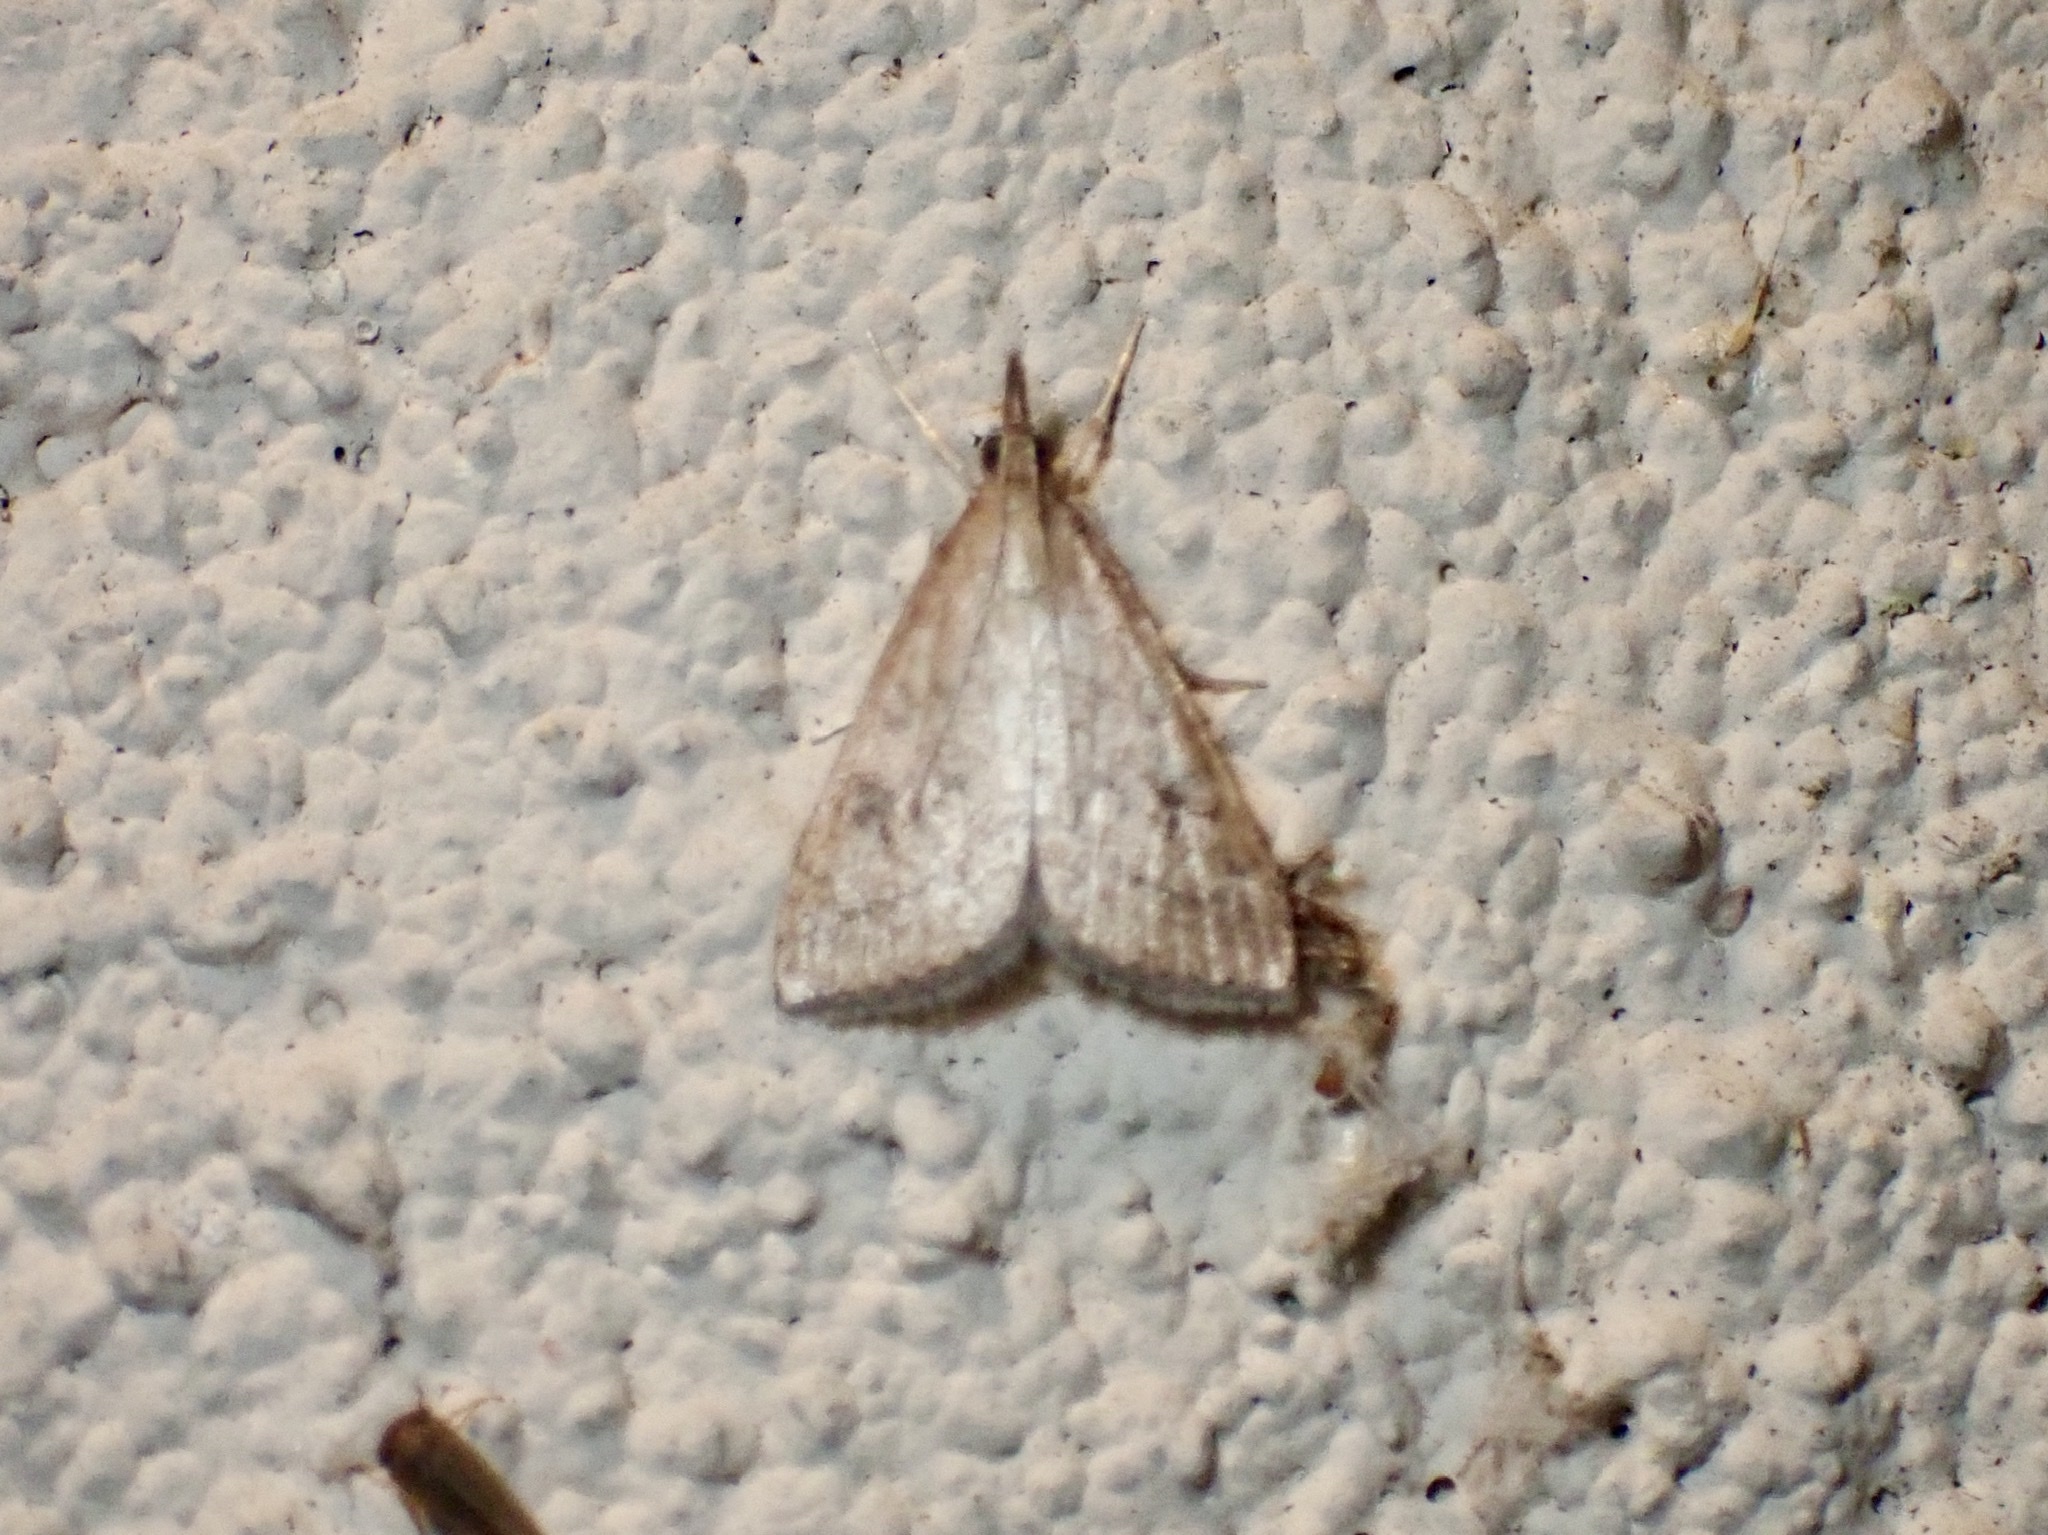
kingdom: Animalia
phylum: Arthropoda
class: Insecta
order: Lepidoptera
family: Crambidae
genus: Udea
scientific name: Udea rubigalis
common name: Celery leaftier moth
